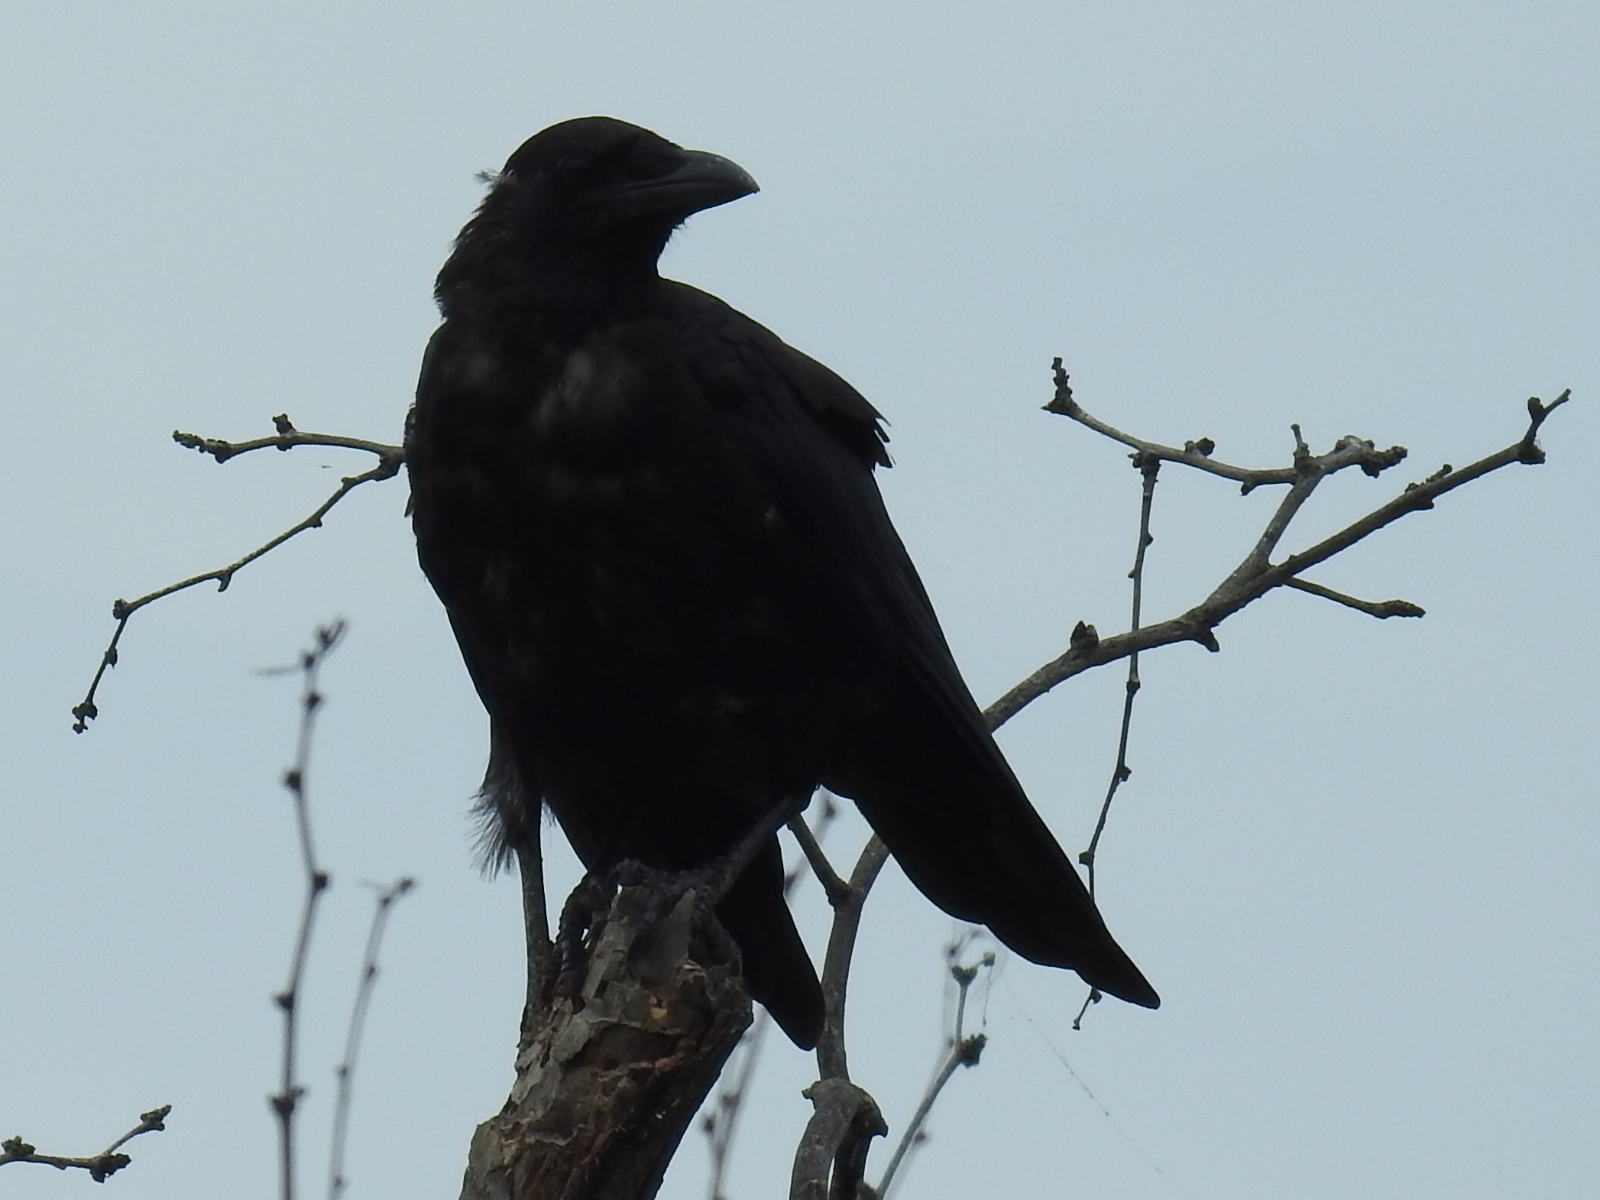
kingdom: Animalia
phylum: Chordata
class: Aves
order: Passeriformes
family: Corvidae
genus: Corvus
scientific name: Corvus brachyrhynchos
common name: American crow
